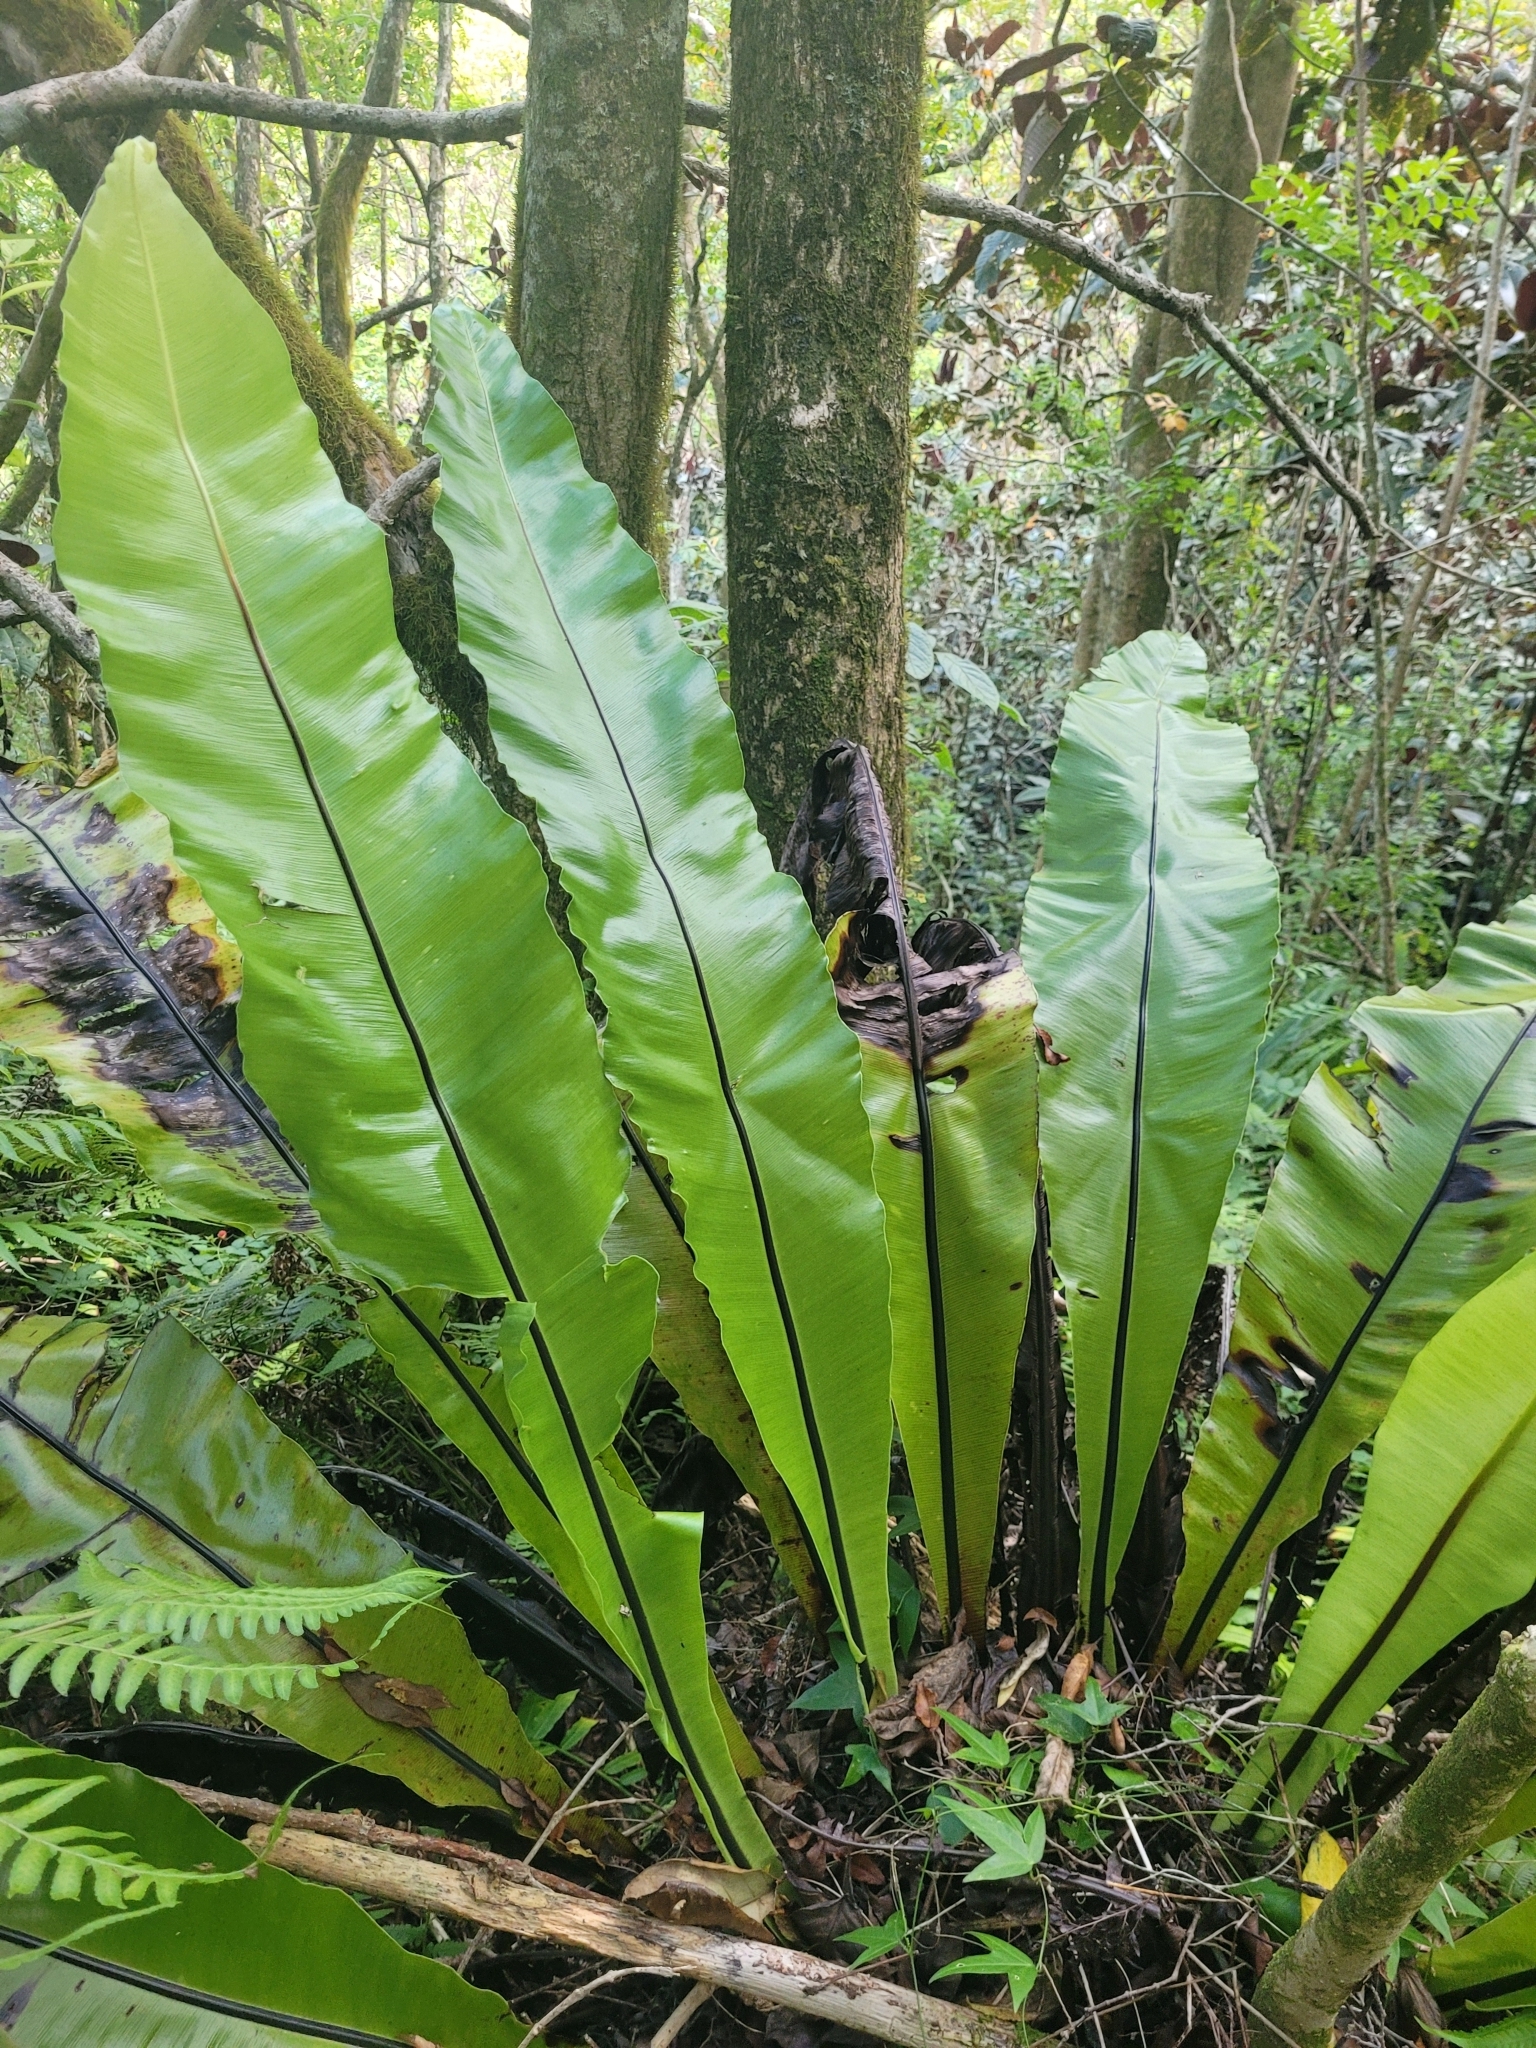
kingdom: Plantae
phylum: Tracheophyta
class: Polypodiopsida
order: Polypodiales
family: Aspleniaceae
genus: Asplenium
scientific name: Asplenium australasicum
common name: Bird's-nest fern
